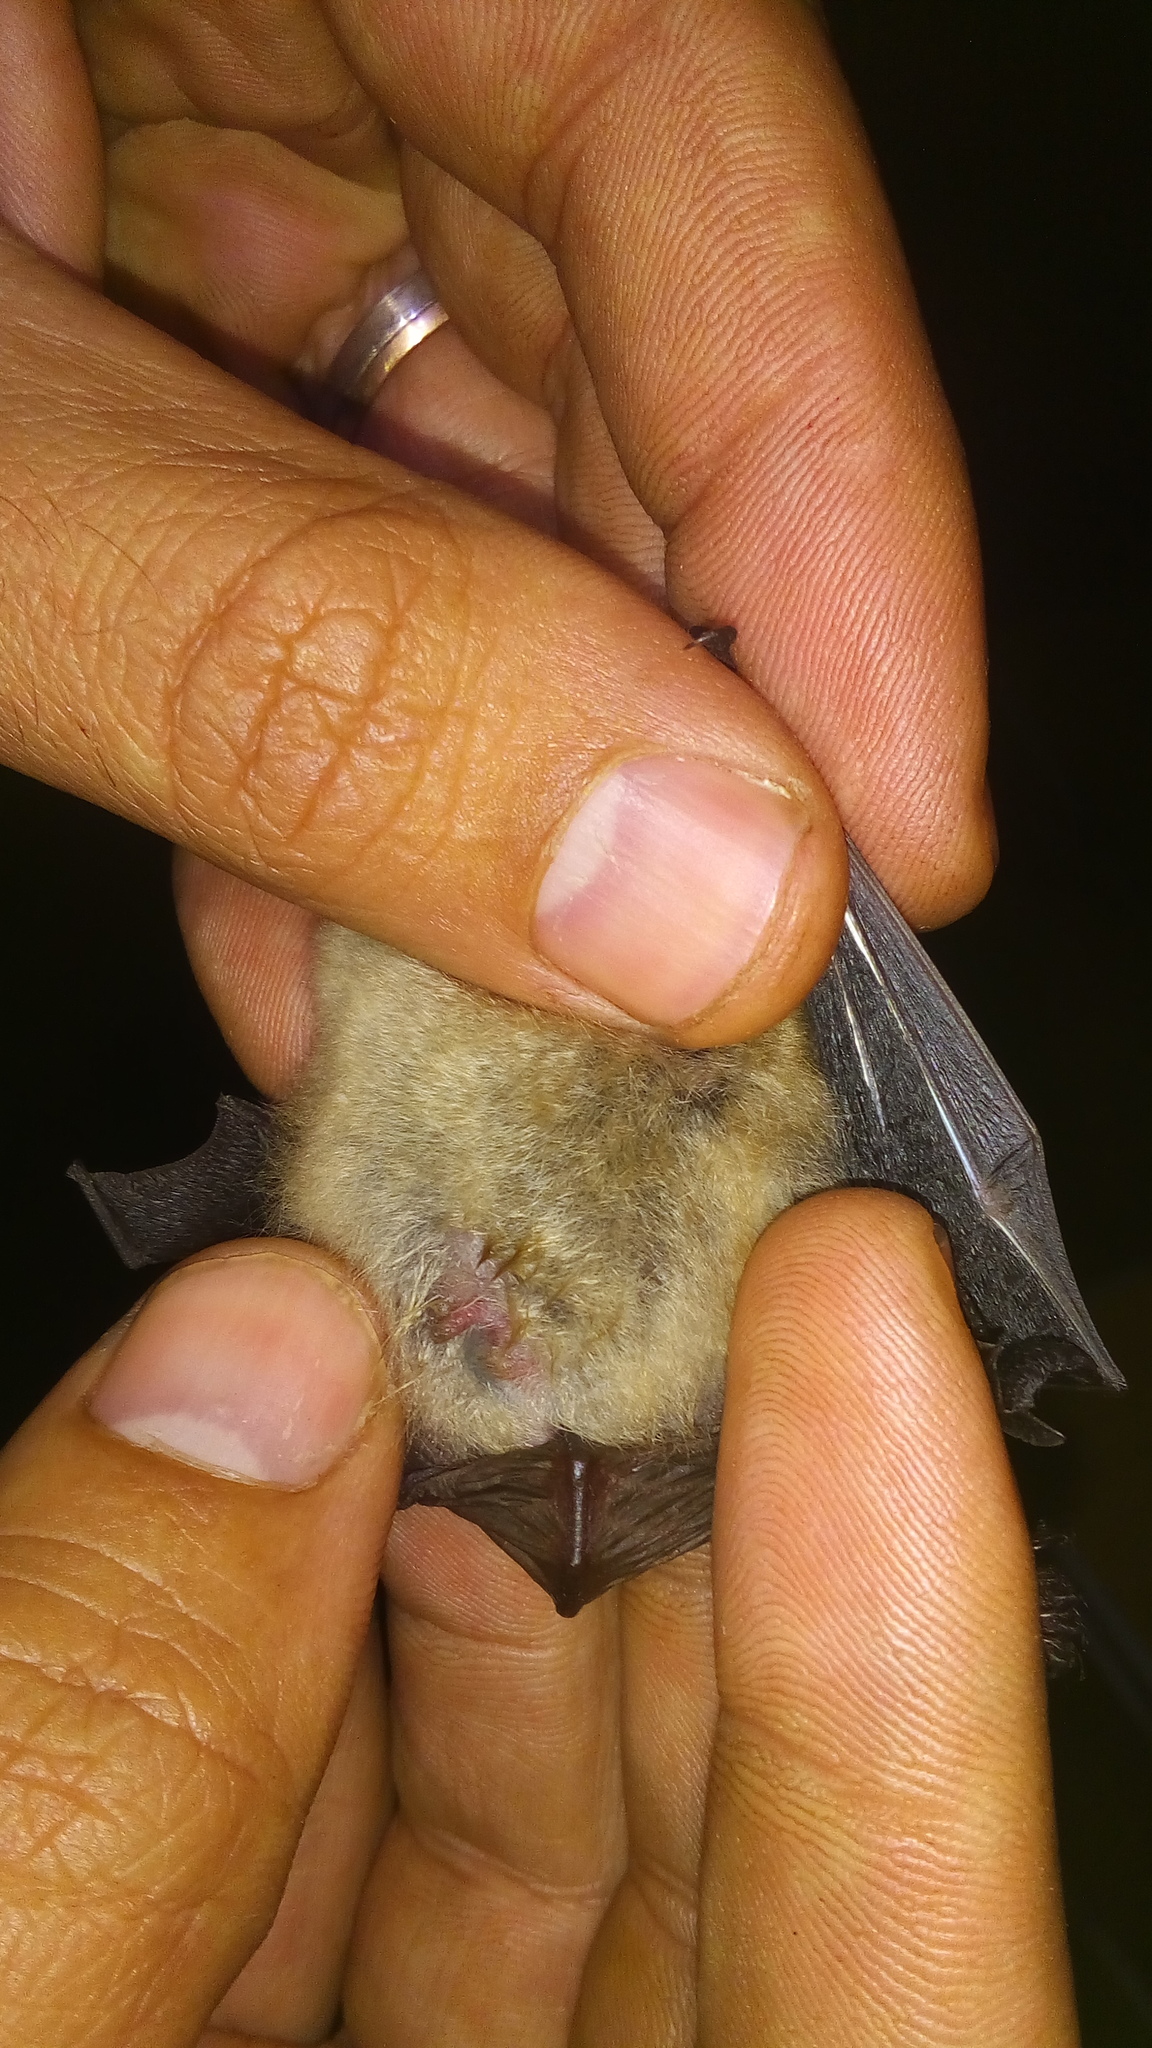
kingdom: Animalia
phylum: Chordata
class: Mammalia
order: Chiroptera
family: Vespertilionidae
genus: Myotis
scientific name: Myotis emarginatus
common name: Geoffroy's bat
